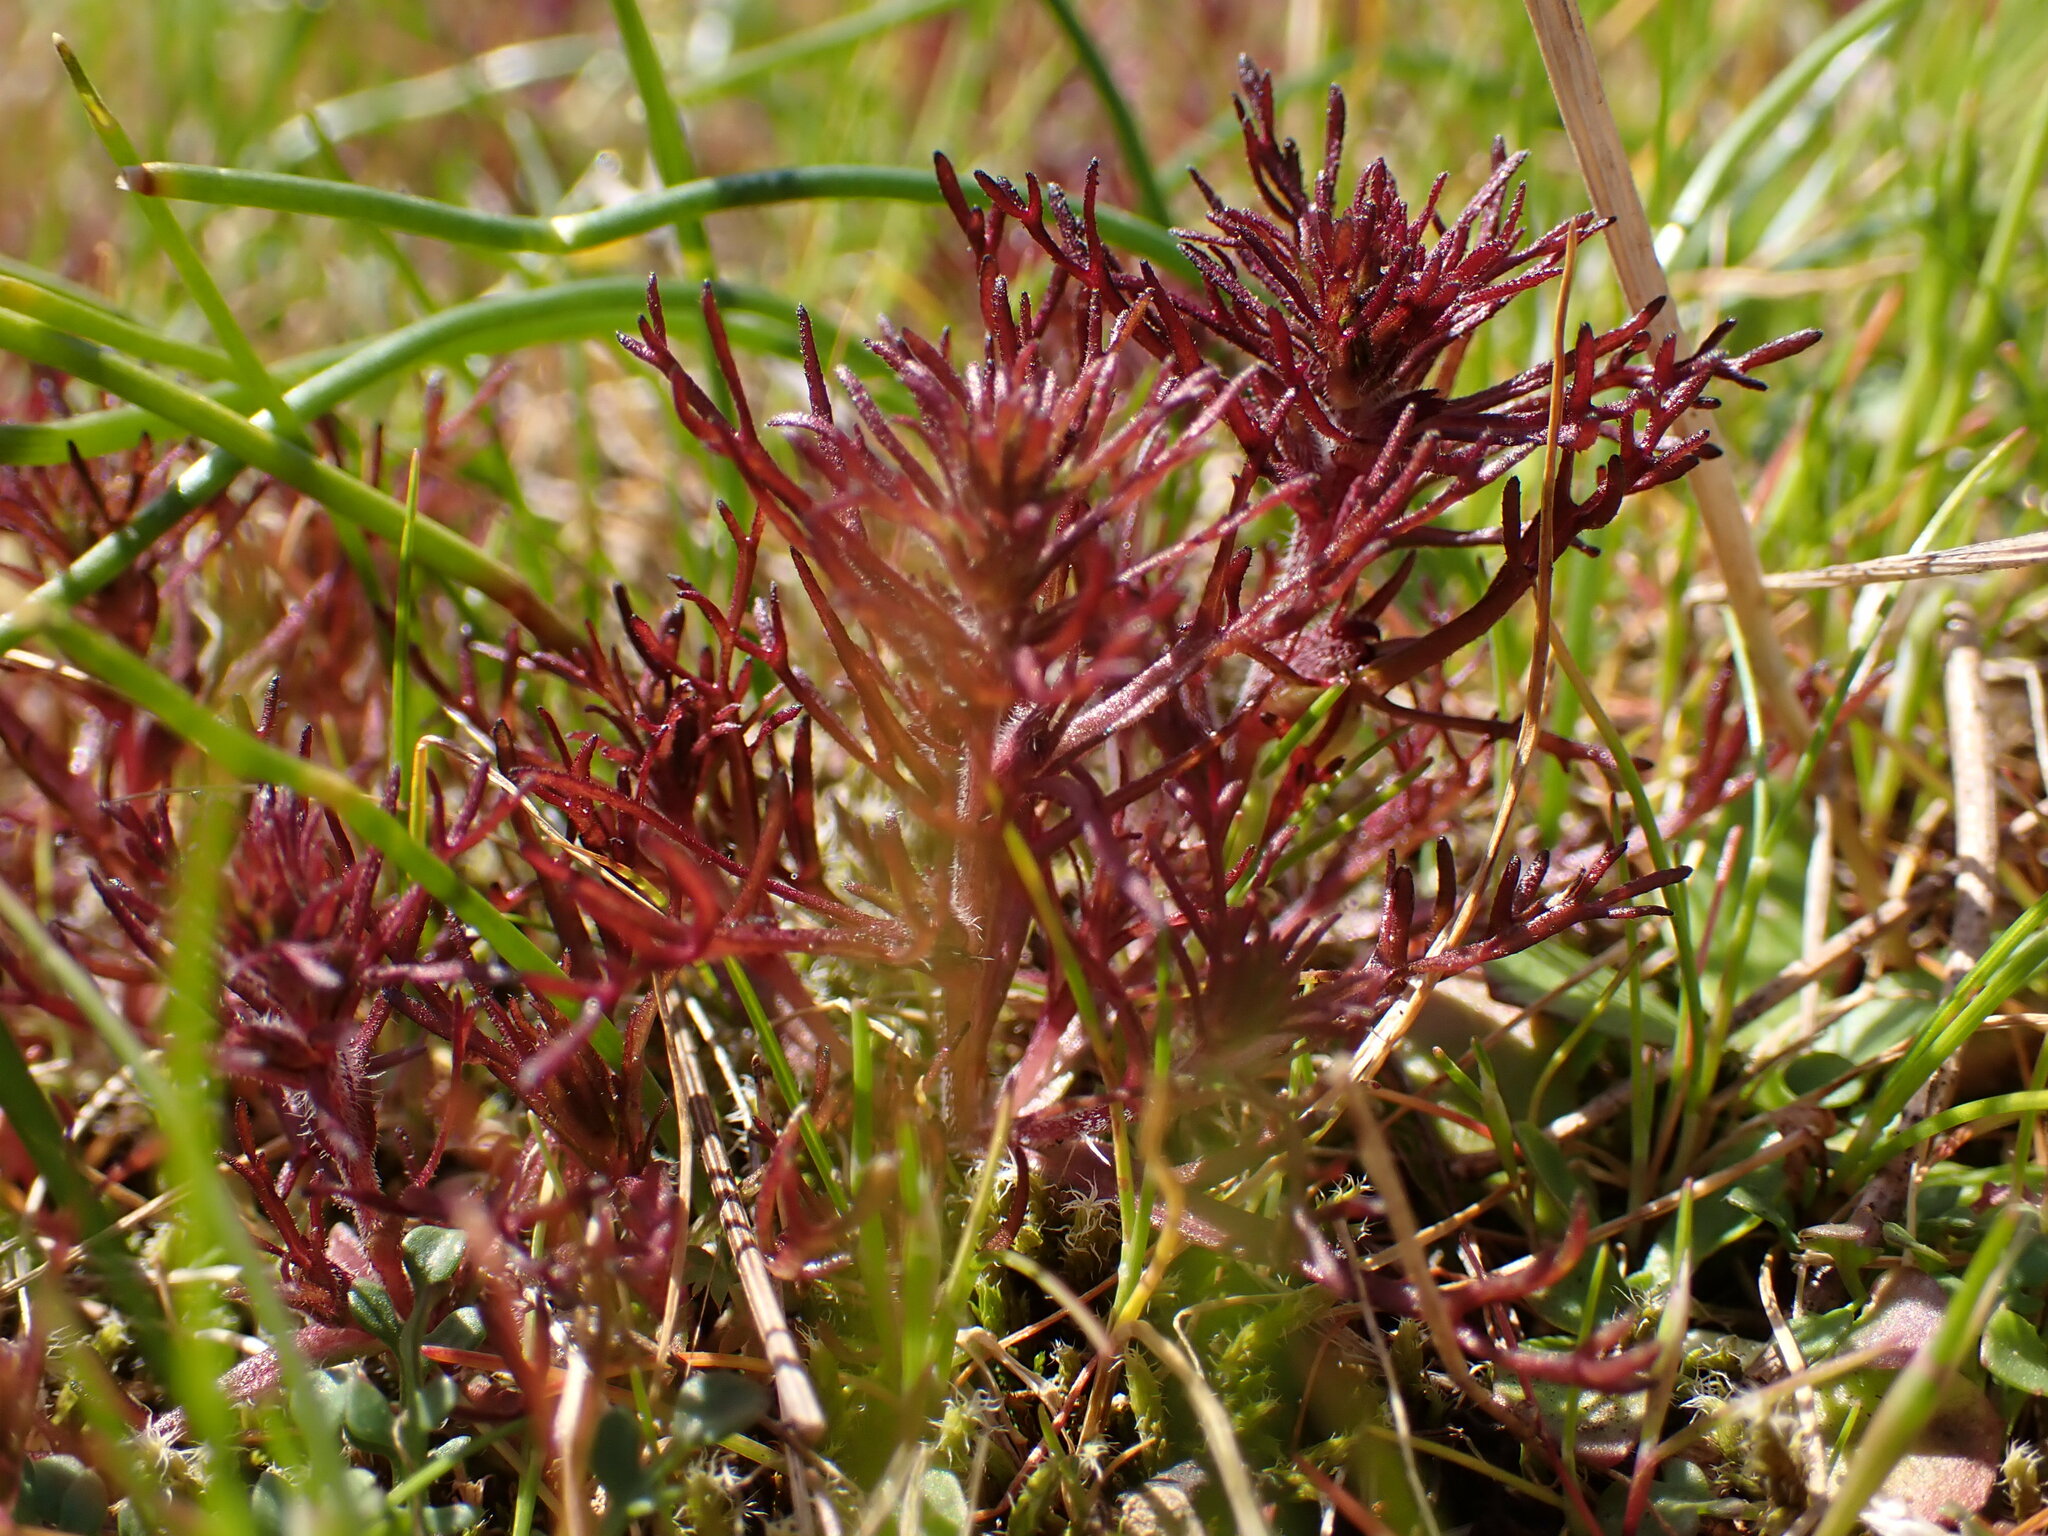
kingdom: Plantae
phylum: Tracheophyta
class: Magnoliopsida
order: Lamiales
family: Orobanchaceae
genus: Triphysaria
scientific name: Triphysaria pusilla
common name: Dwarf false owl-clover
